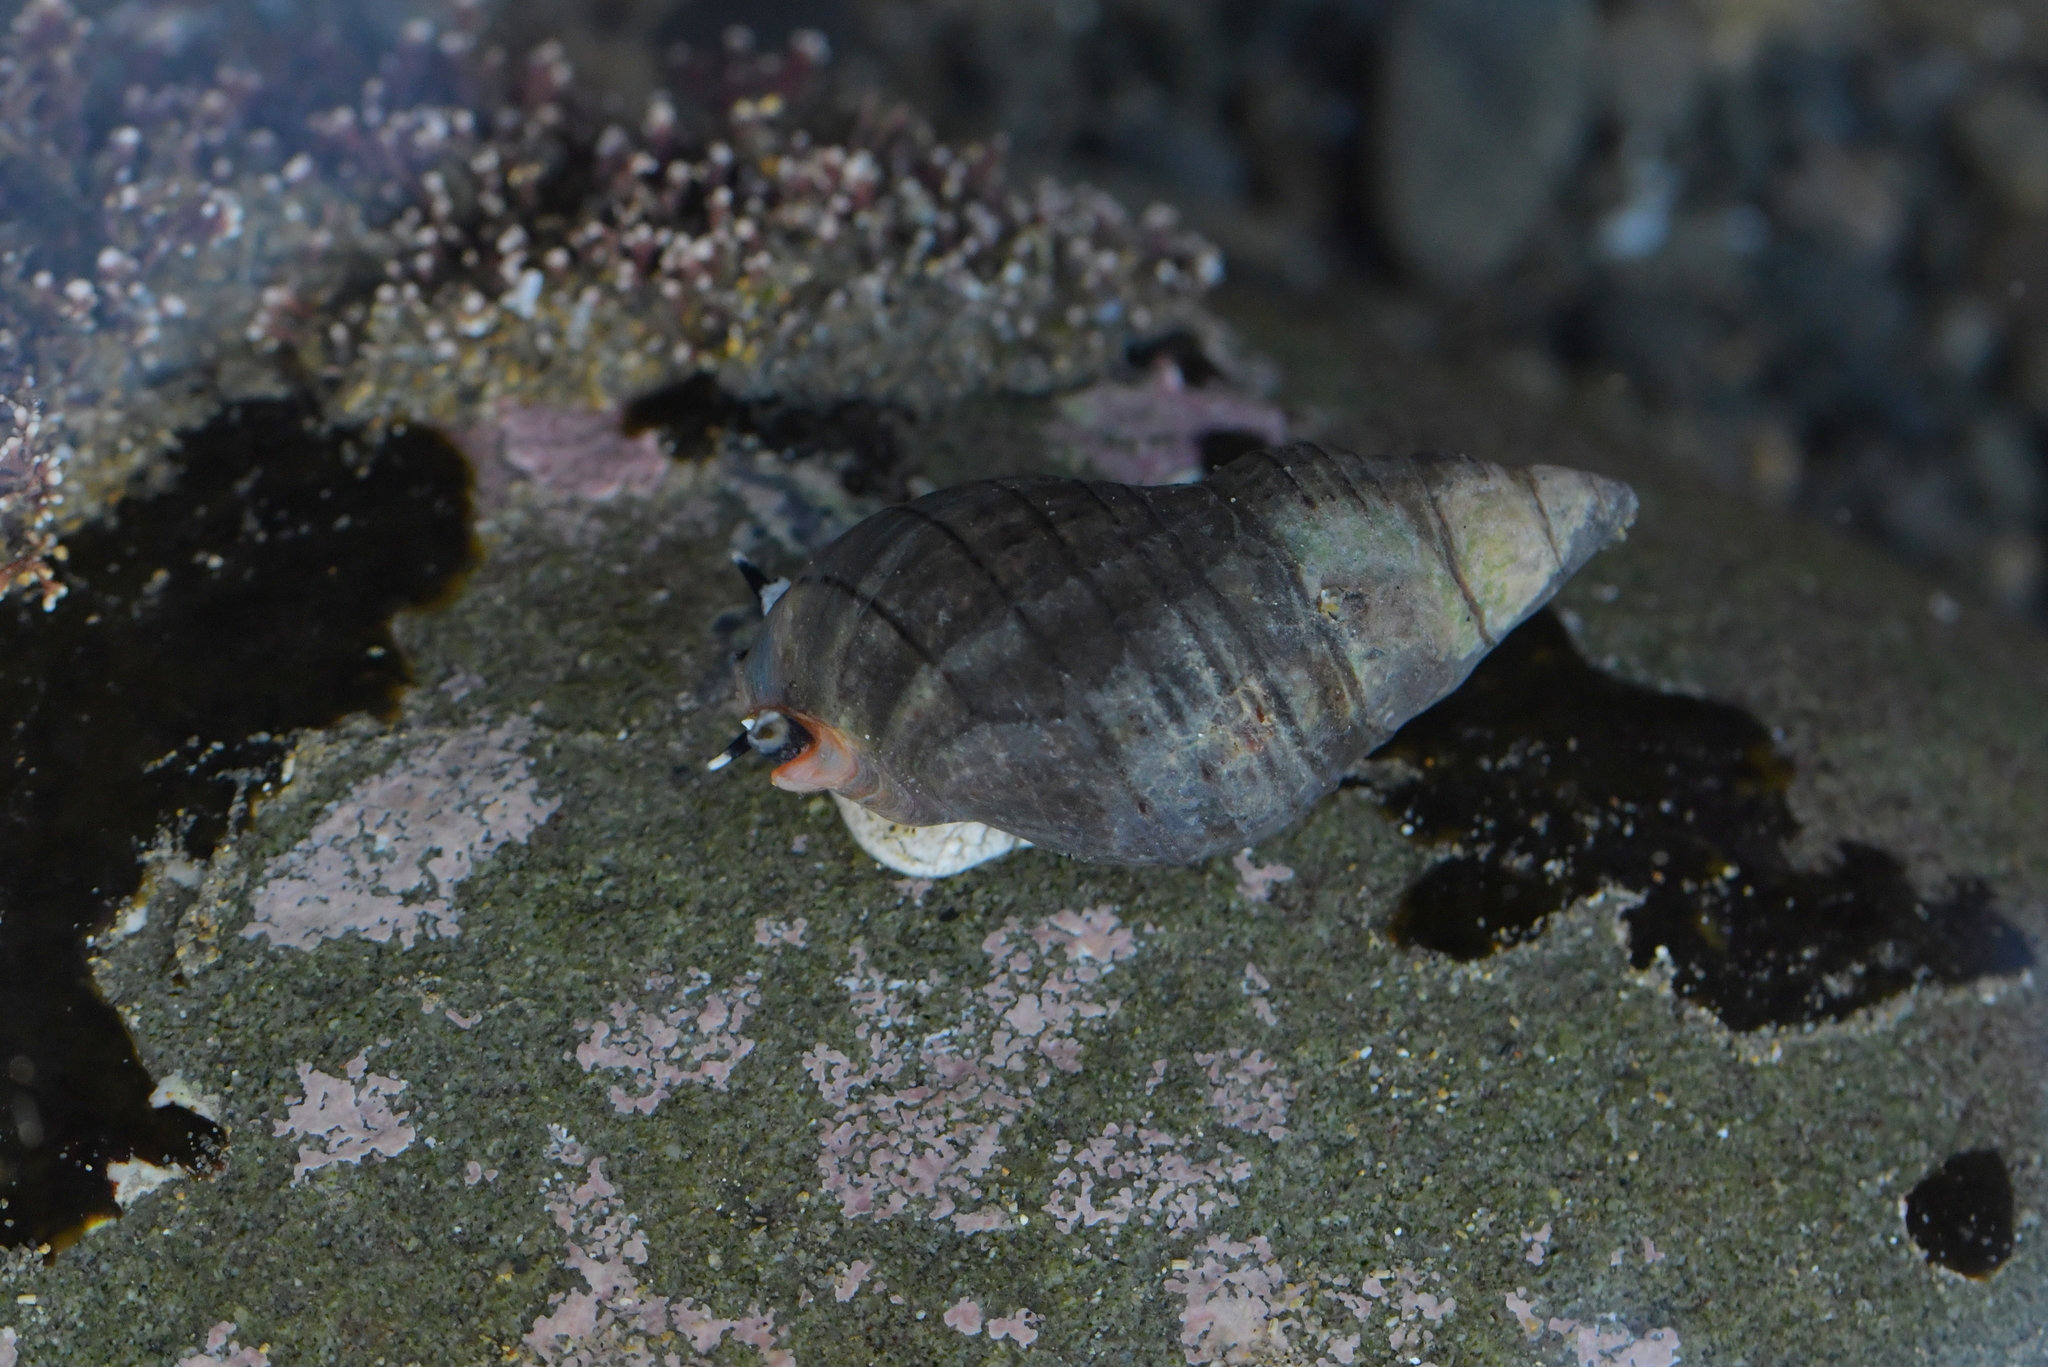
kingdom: Animalia
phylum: Mollusca
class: Gastropoda
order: Neogastropoda
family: Cominellidae
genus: Cominella
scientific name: Cominella virgata
